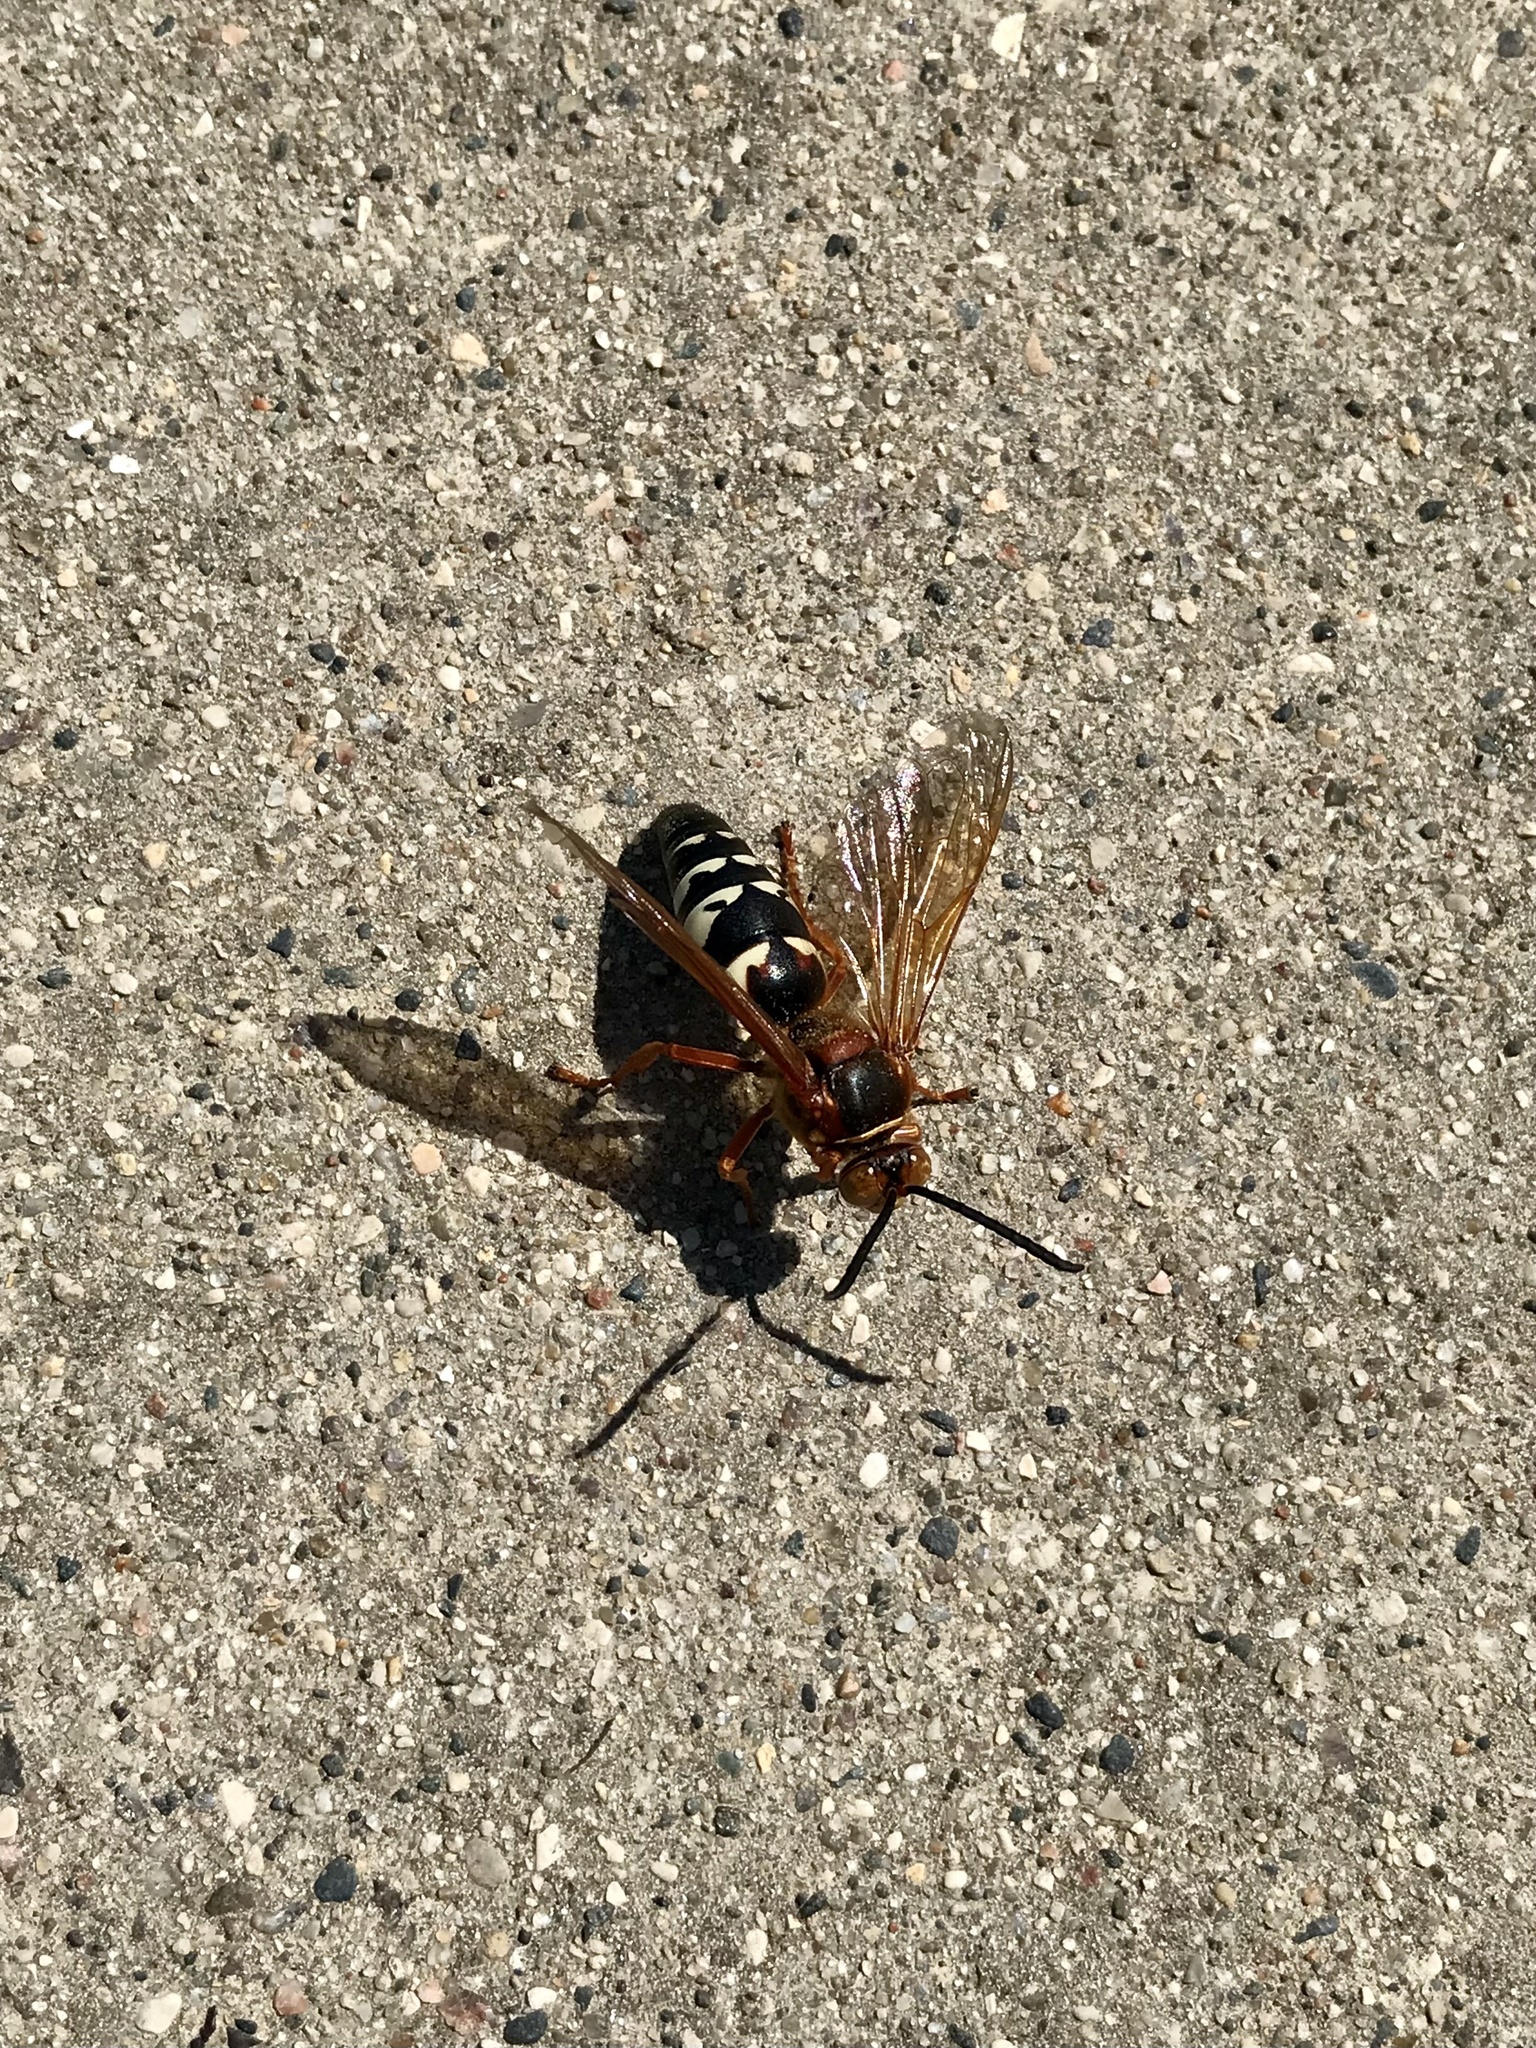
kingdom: Animalia
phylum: Arthropoda
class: Insecta
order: Hymenoptera
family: Crabronidae
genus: Sphecius
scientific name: Sphecius speciosus
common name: Cicada killer
